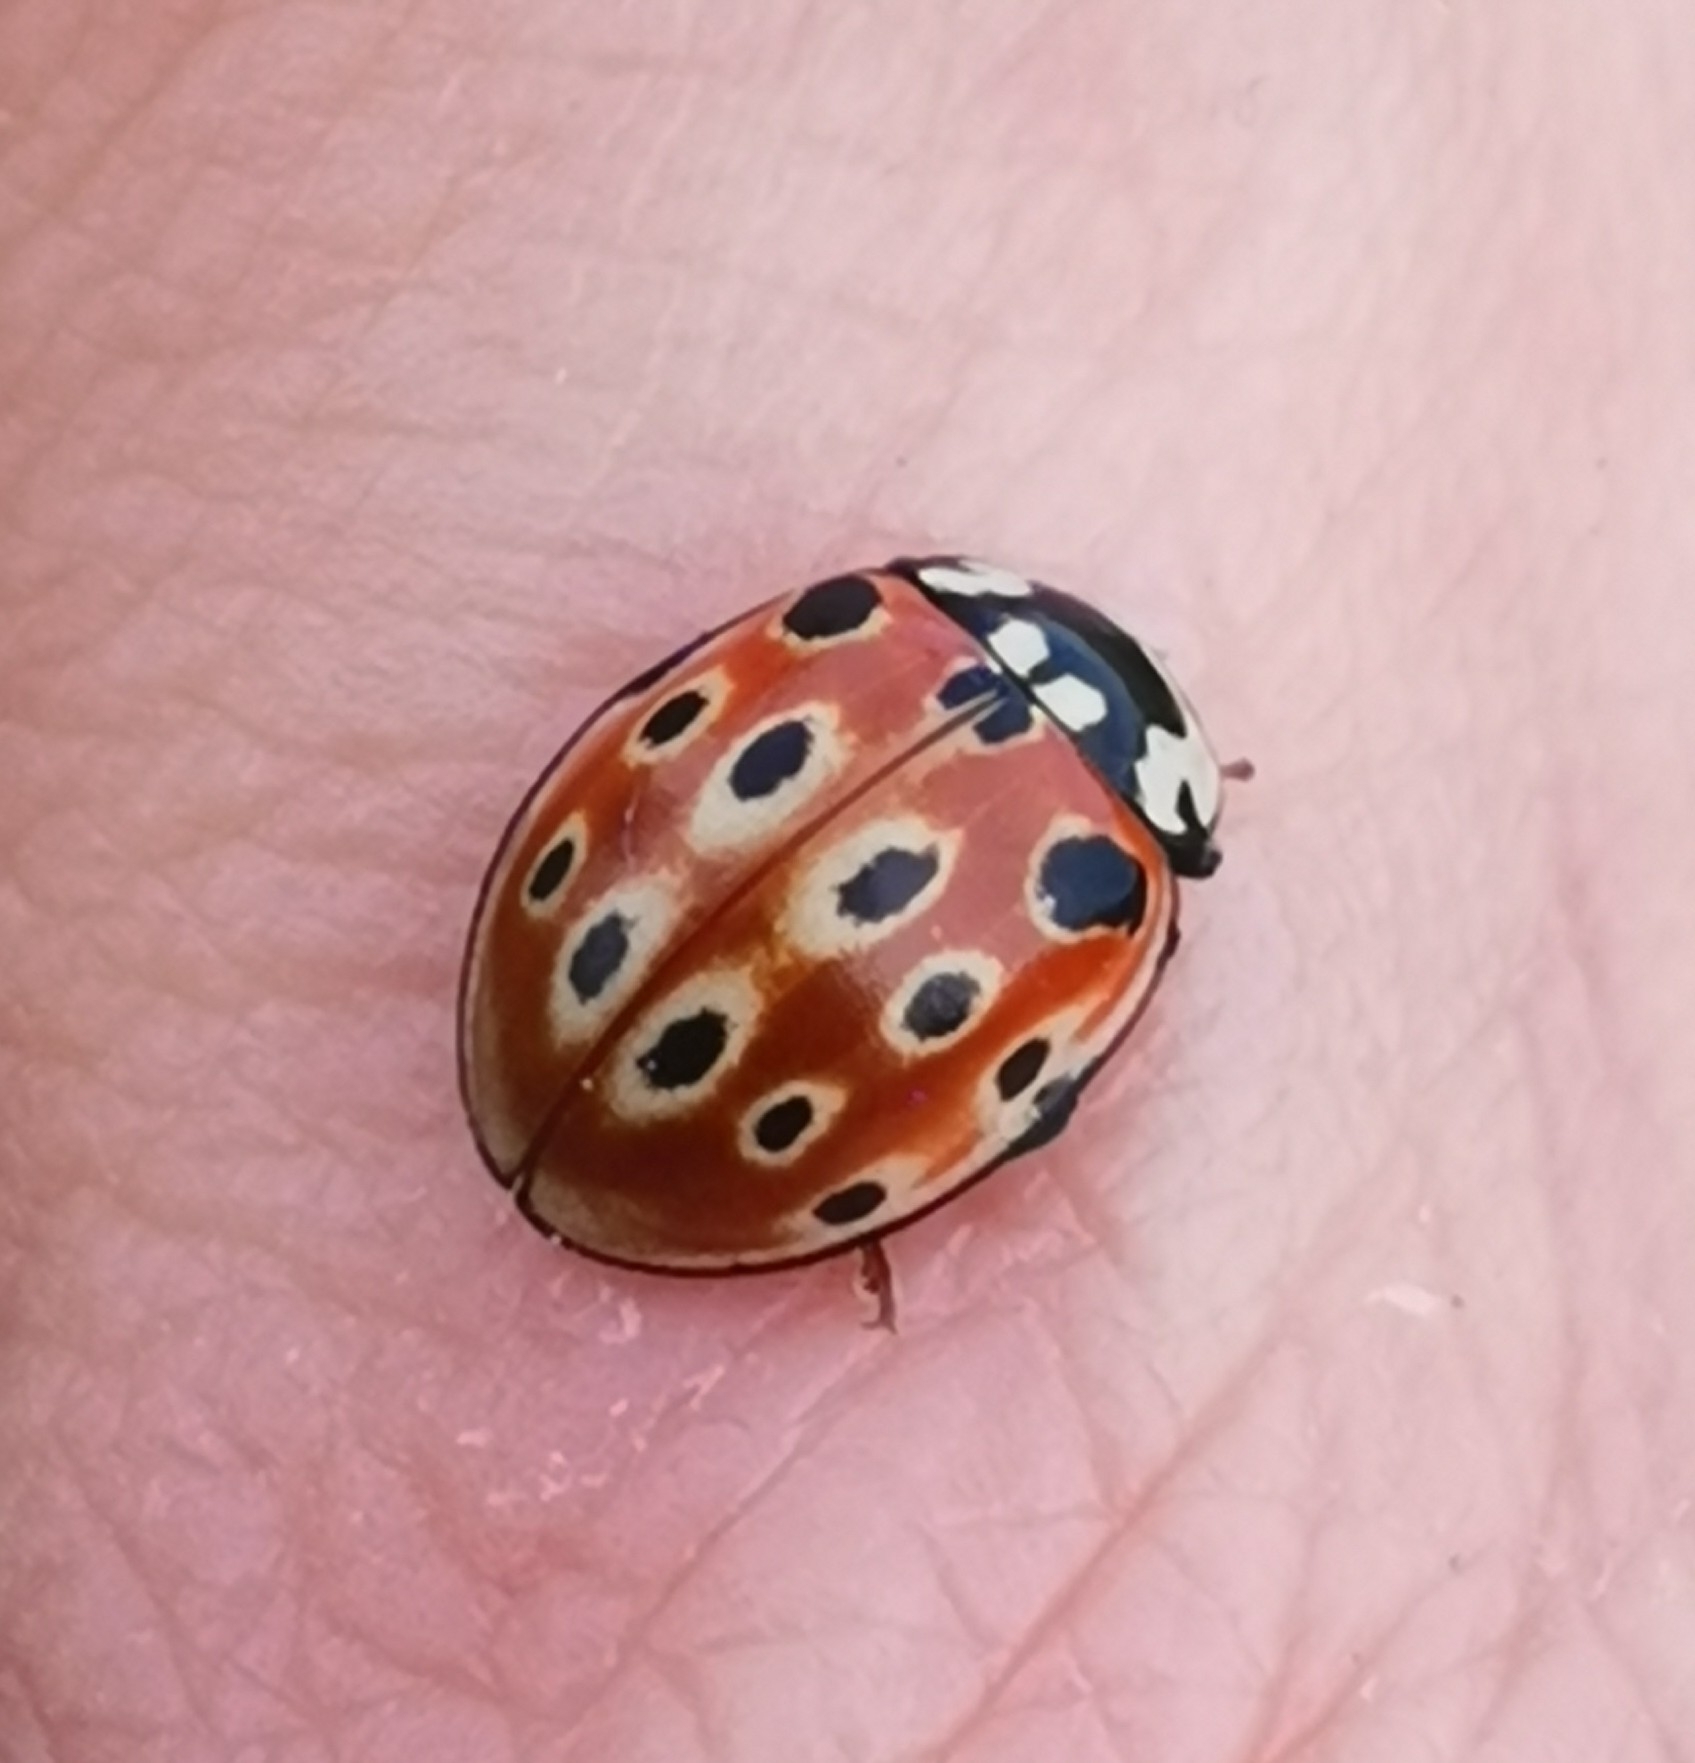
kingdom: Animalia
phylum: Arthropoda
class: Insecta
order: Coleoptera
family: Coccinellidae
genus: Anatis
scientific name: Anatis ocellata
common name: Eyed ladybird
